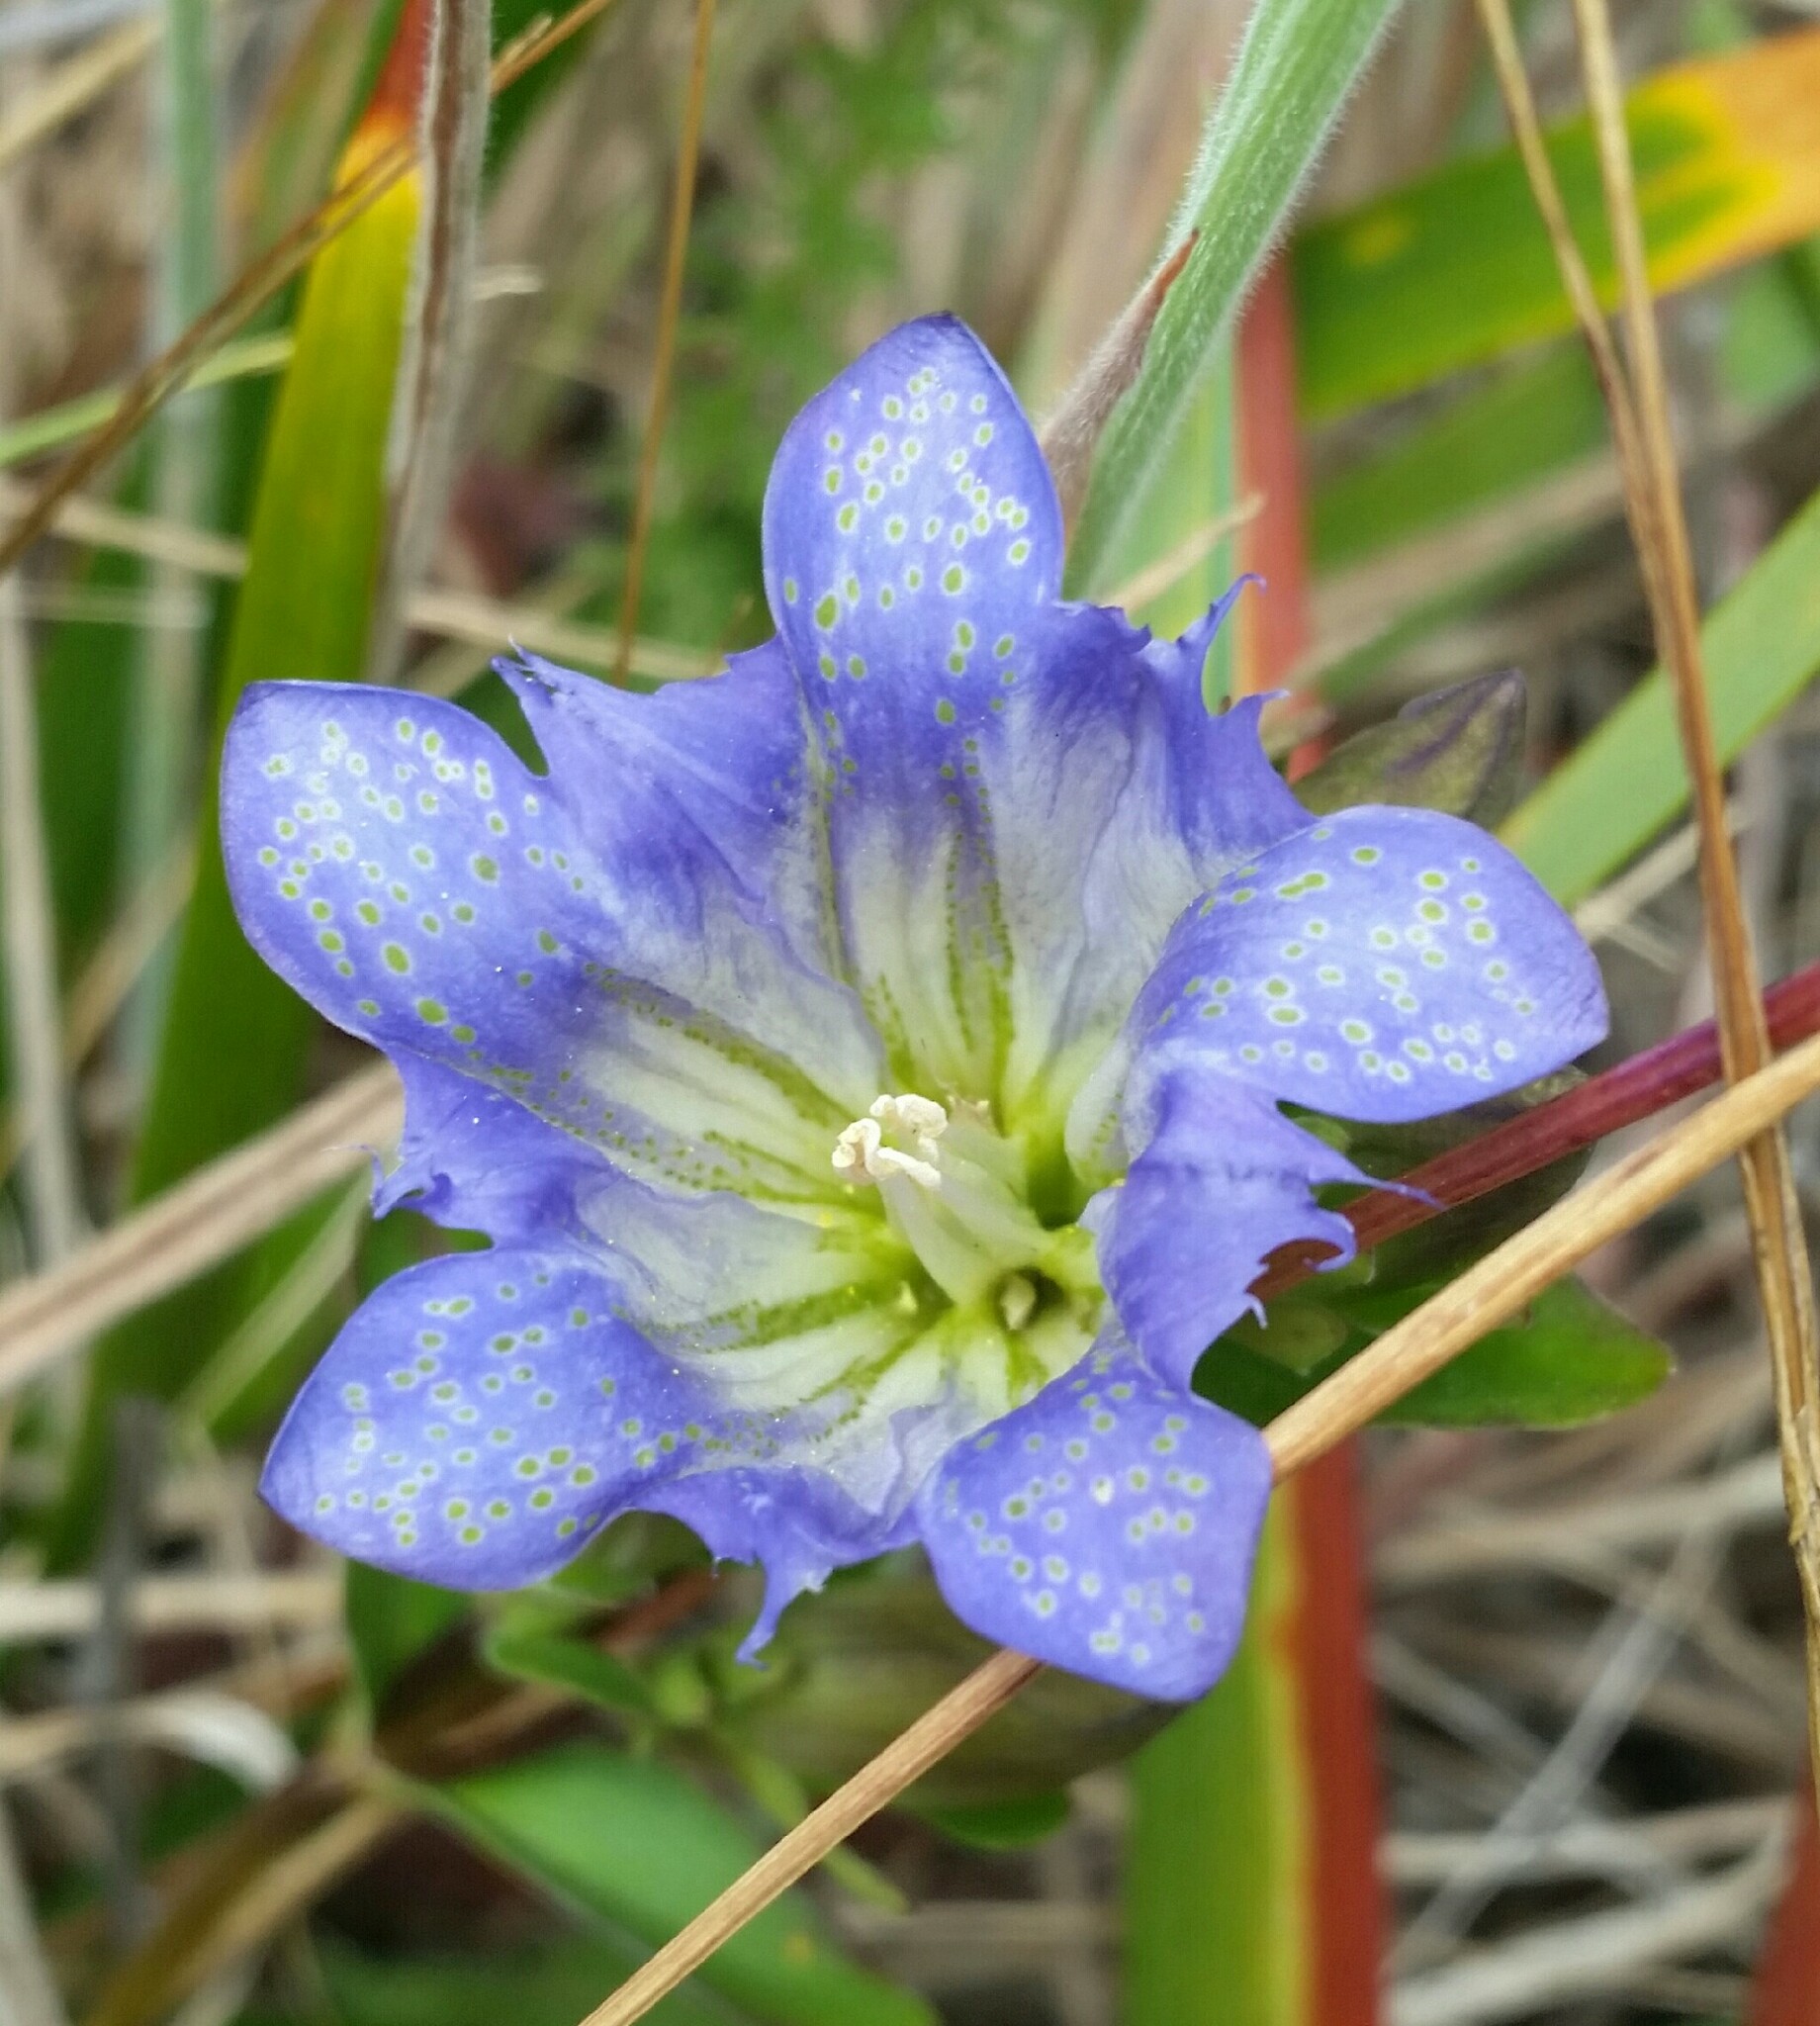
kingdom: Plantae
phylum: Tracheophyta
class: Magnoliopsida
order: Gentianales
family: Gentianaceae
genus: Gentiana
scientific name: Gentiana affinis
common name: Rocky mountain gentian
